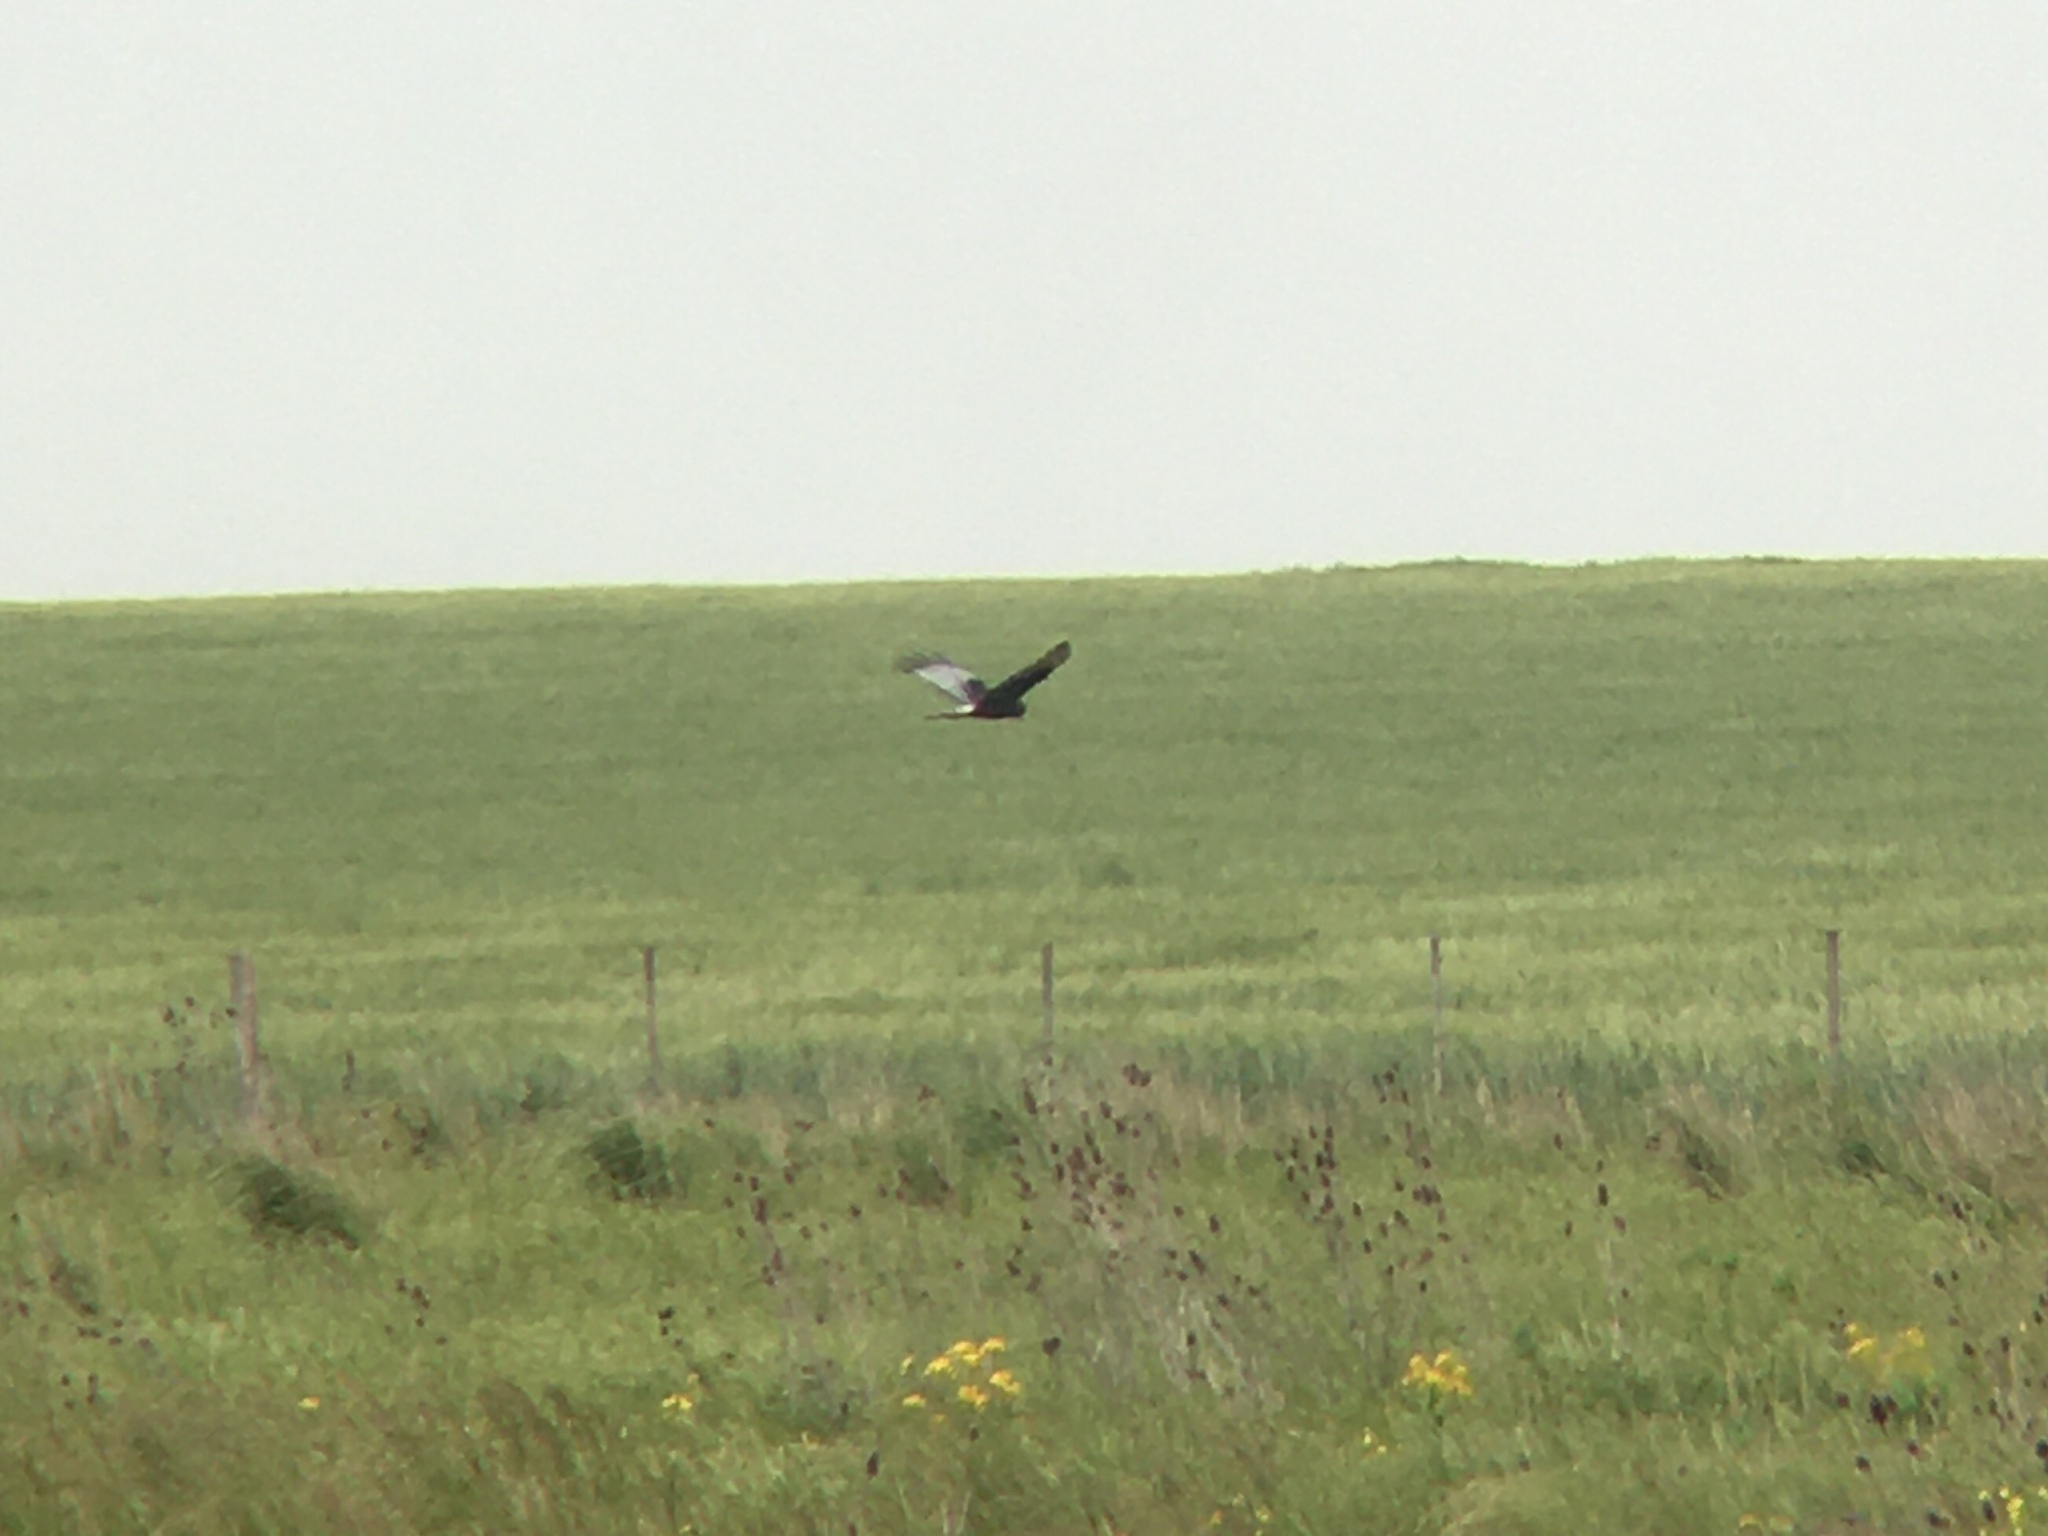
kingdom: Animalia
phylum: Chordata
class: Aves
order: Accipitriformes
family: Accipitridae
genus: Circus
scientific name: Circus buffoni
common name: Long-winged harrier
